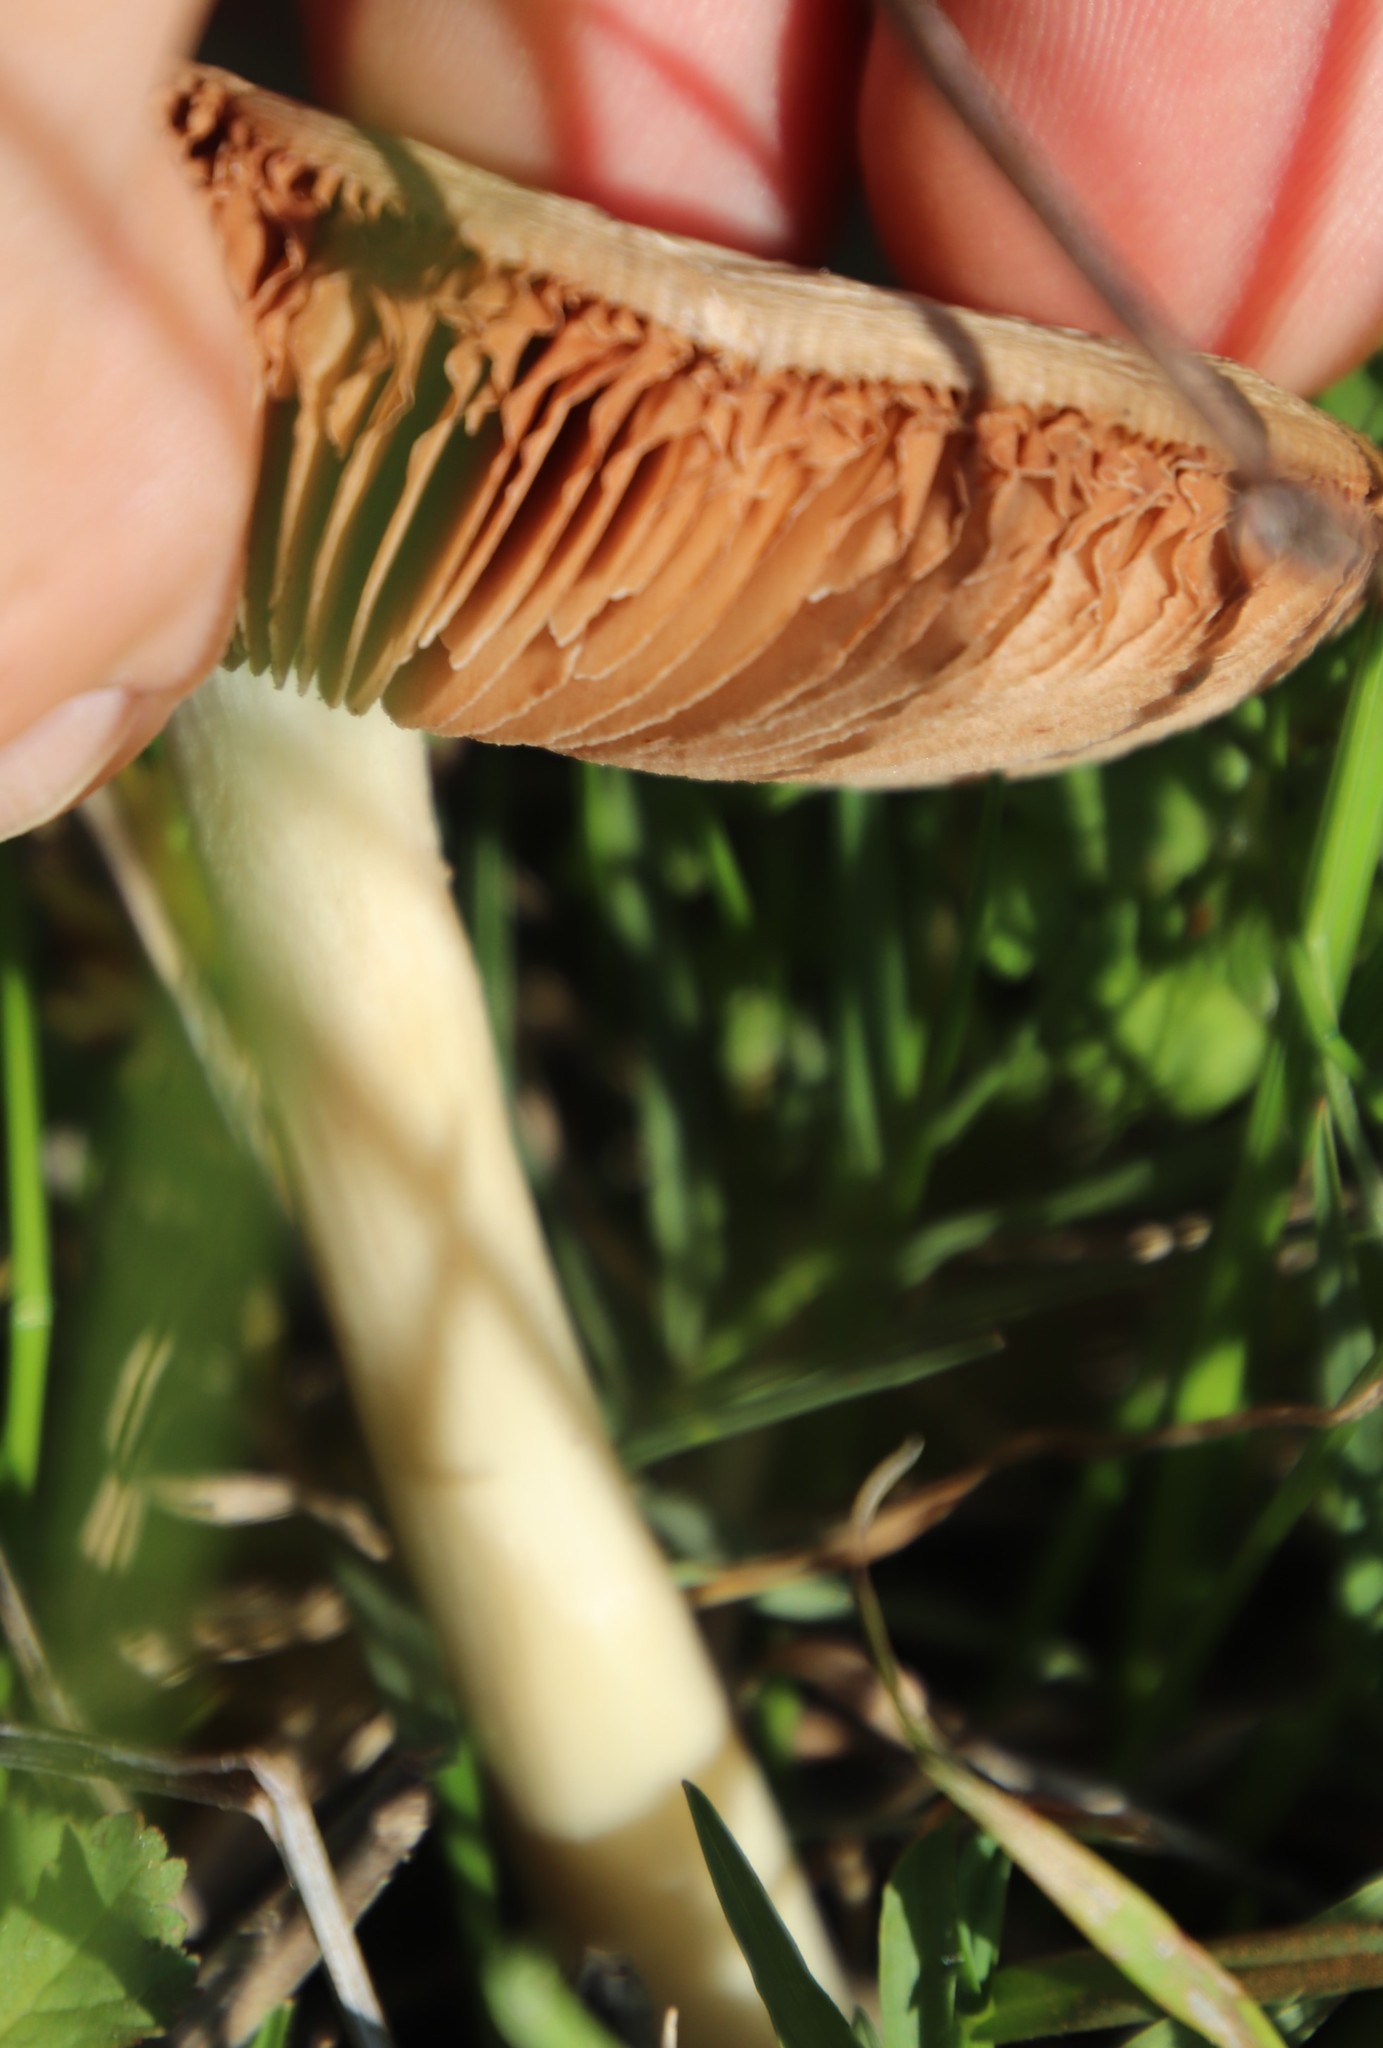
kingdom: Fungi
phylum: Basidiomycota
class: Agaricomycetes
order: Agaricales
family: Pluteaceae
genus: Volvopluteus
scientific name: Volvopluteus gloiocephalus
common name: Stubble rosegill
